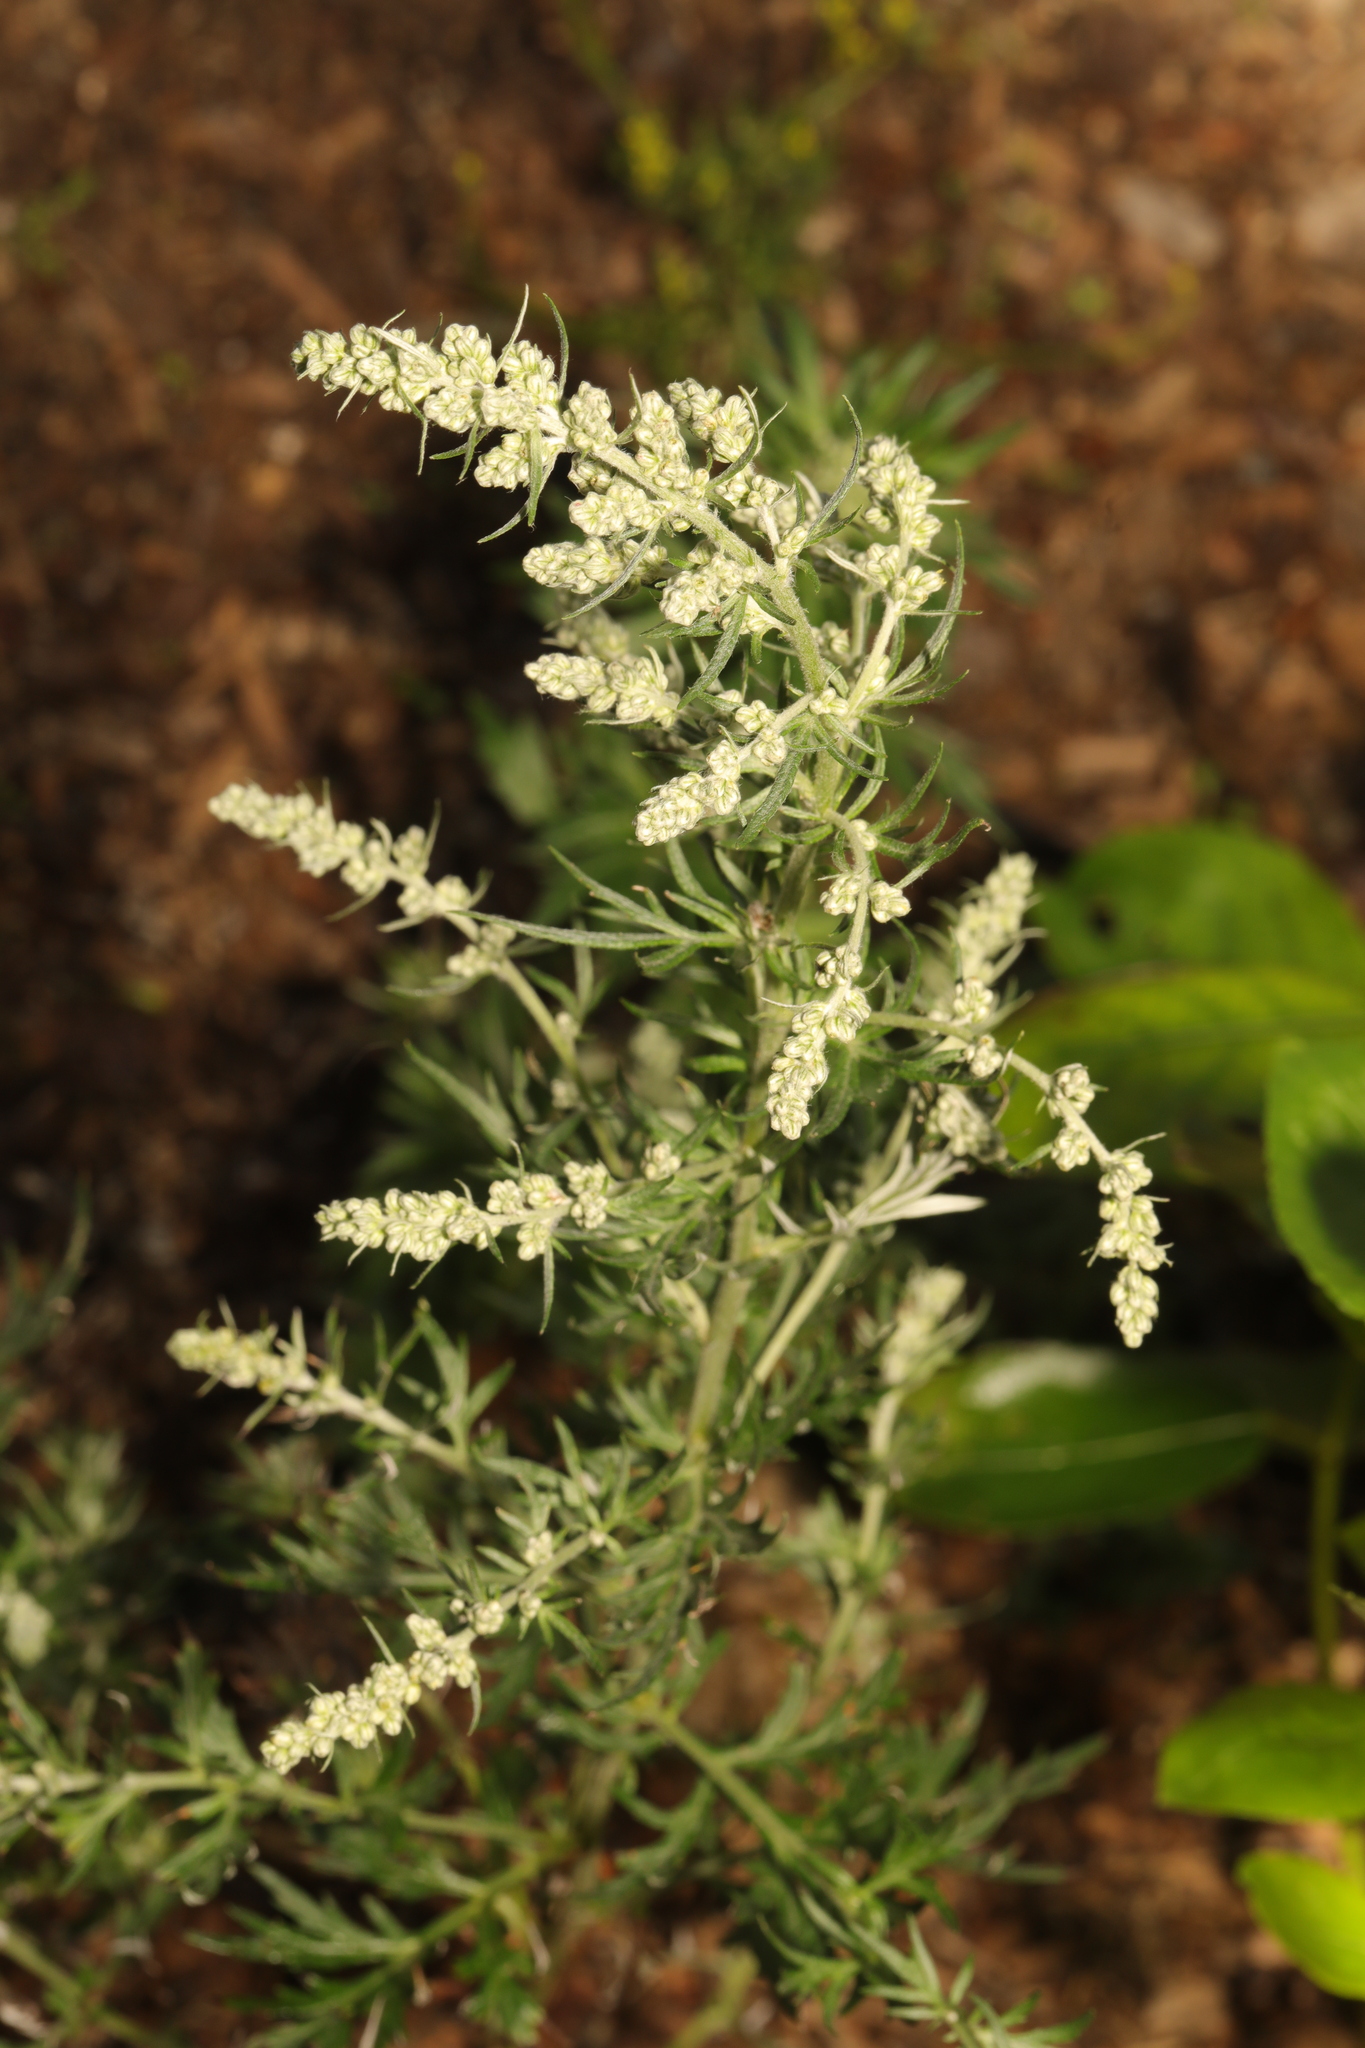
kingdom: Plantae
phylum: Tracheophyta
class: Magnoliopsida
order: Asterales
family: Asteraceae
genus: Artemisia
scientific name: Artemisia vulgaris
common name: Mugwort
